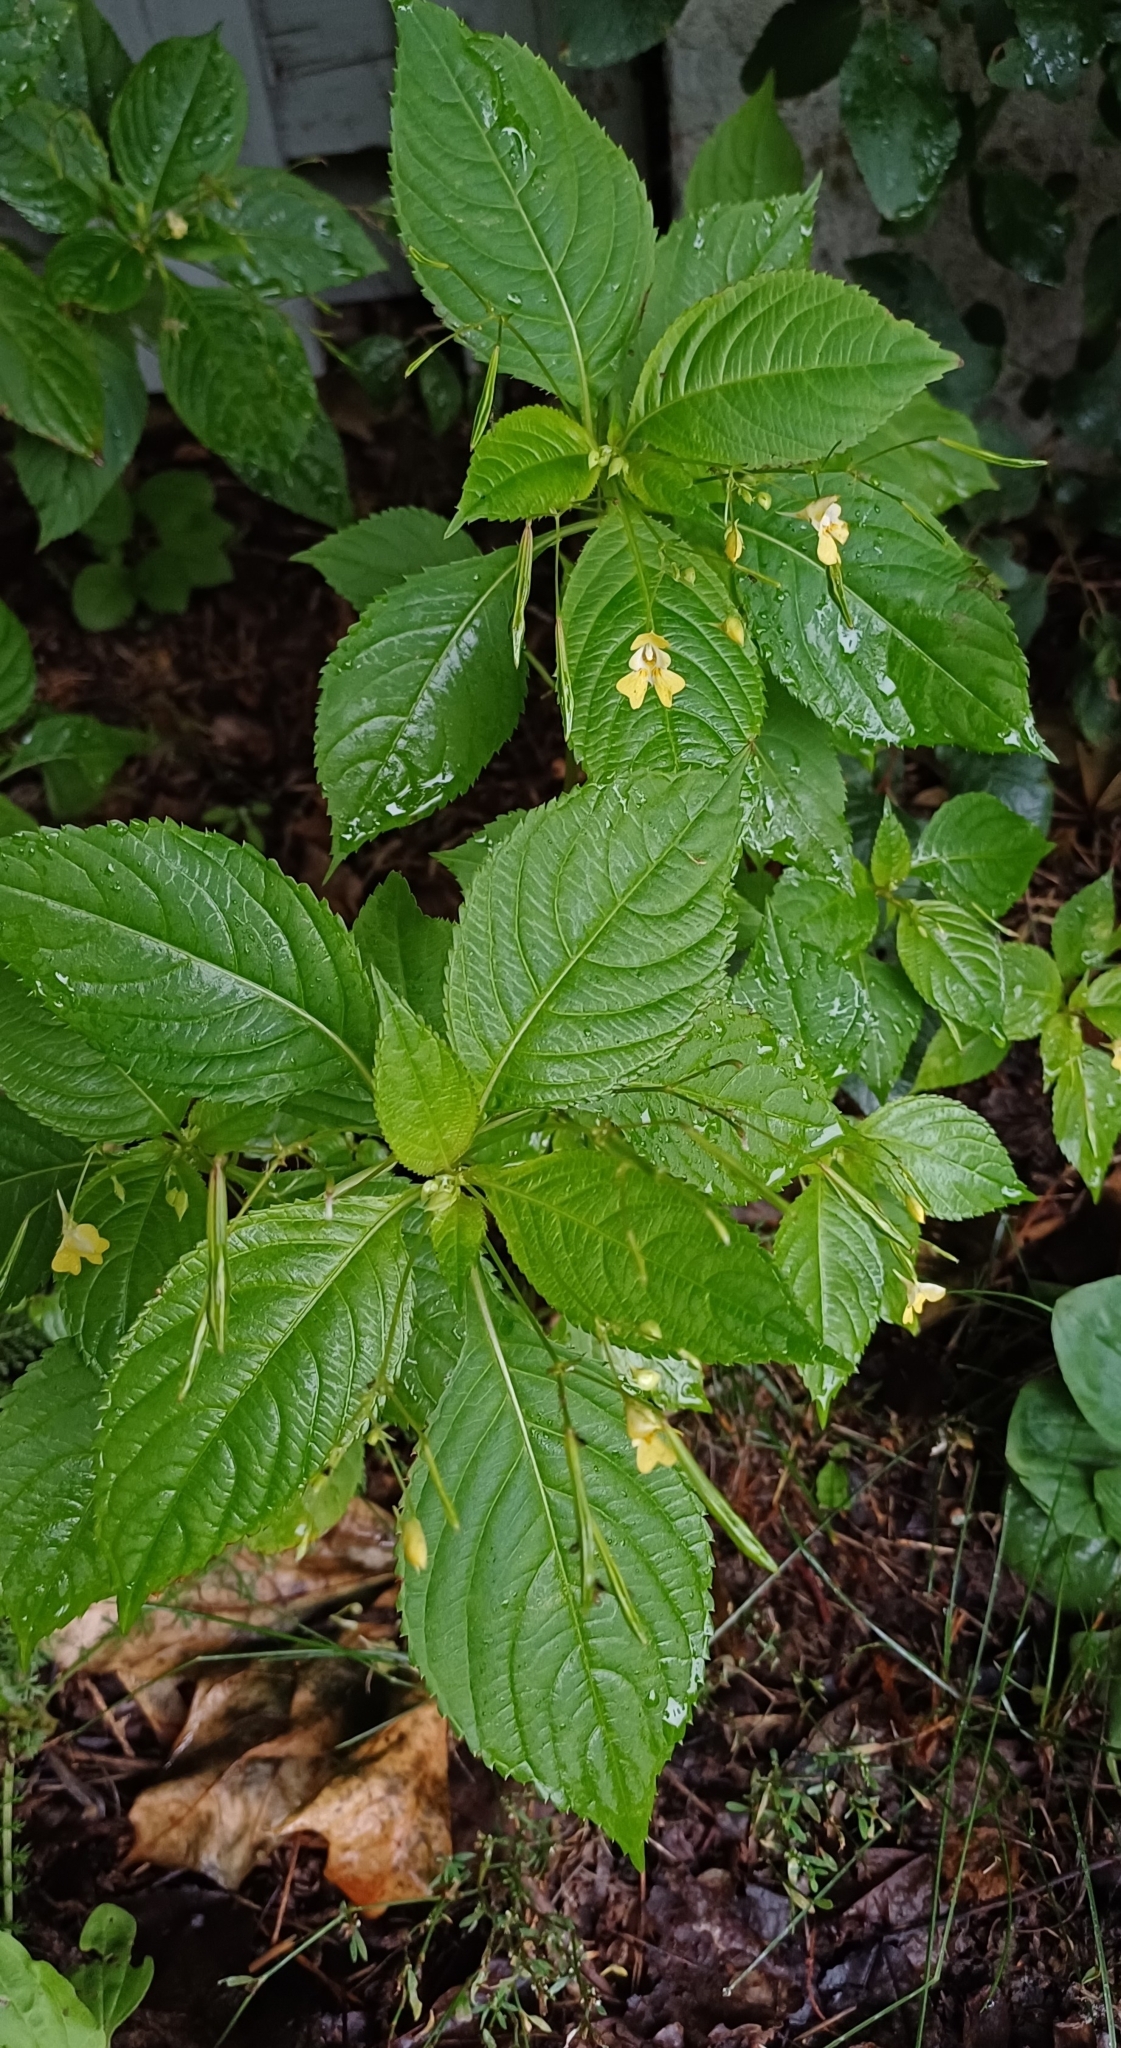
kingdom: Plantae
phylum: Tracheophyta
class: Magnoliopsida
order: Ericales
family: Balsaminaceae
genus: Impatiens
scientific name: Impatiens parviflora
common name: Small balsam
